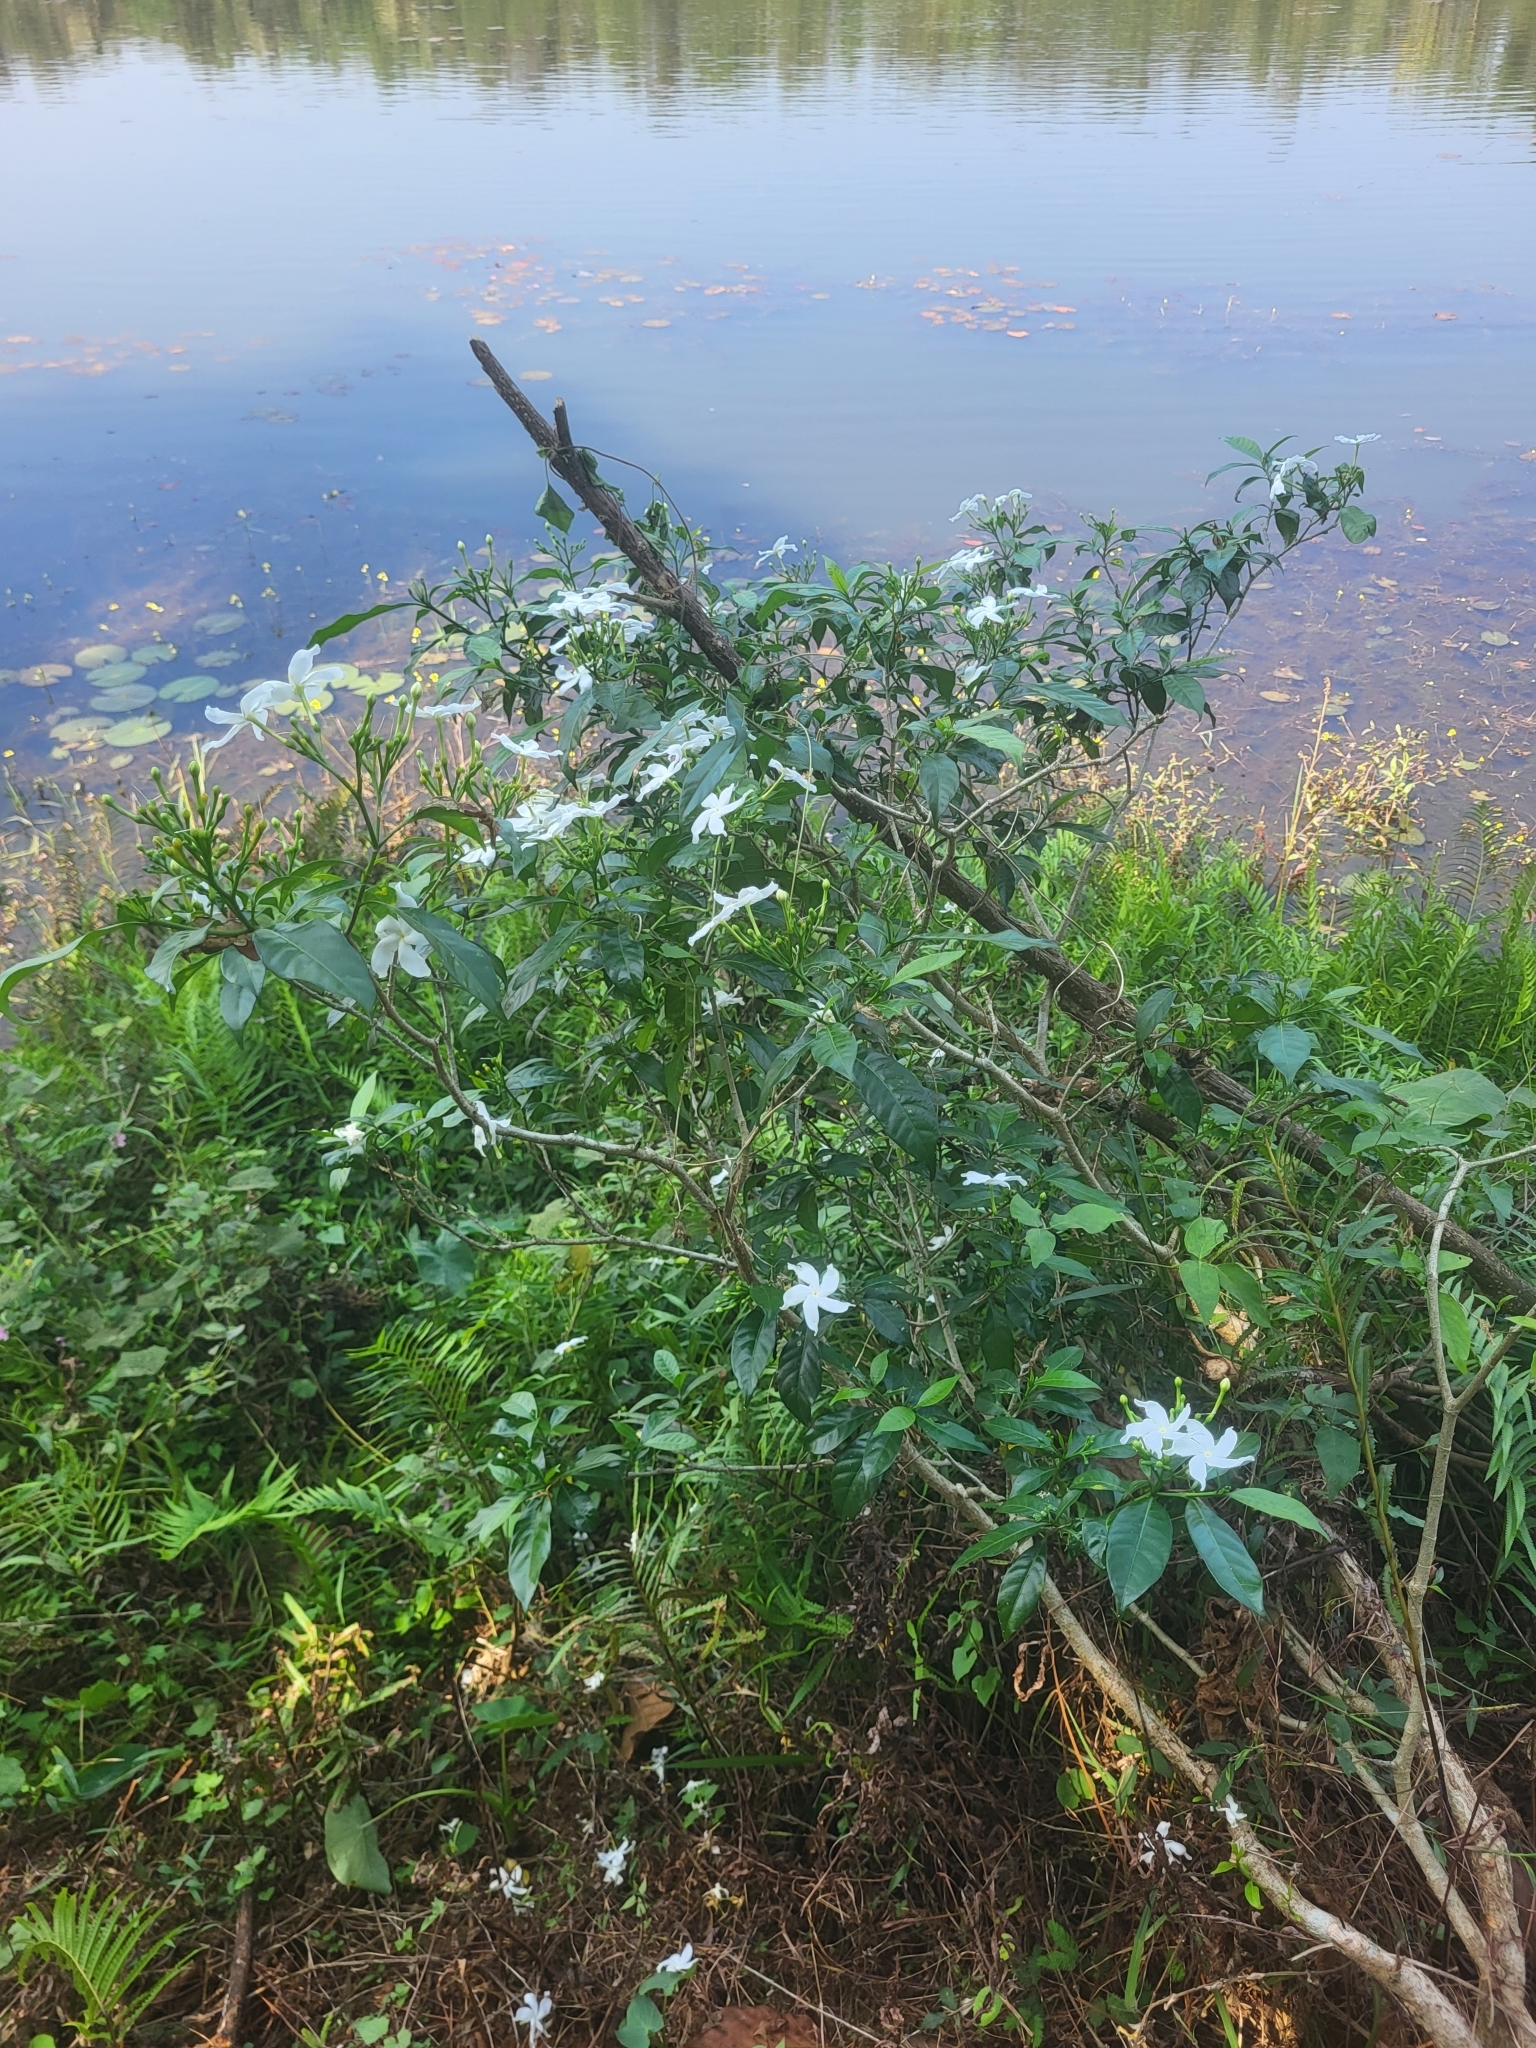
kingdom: Plantae
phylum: Tracheophyta
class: Magnoliopsida
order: Gentianales
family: Apocynaceae
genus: Tabernaemontana
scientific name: Tabernaemontana divaricata
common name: Pinwheelflower
